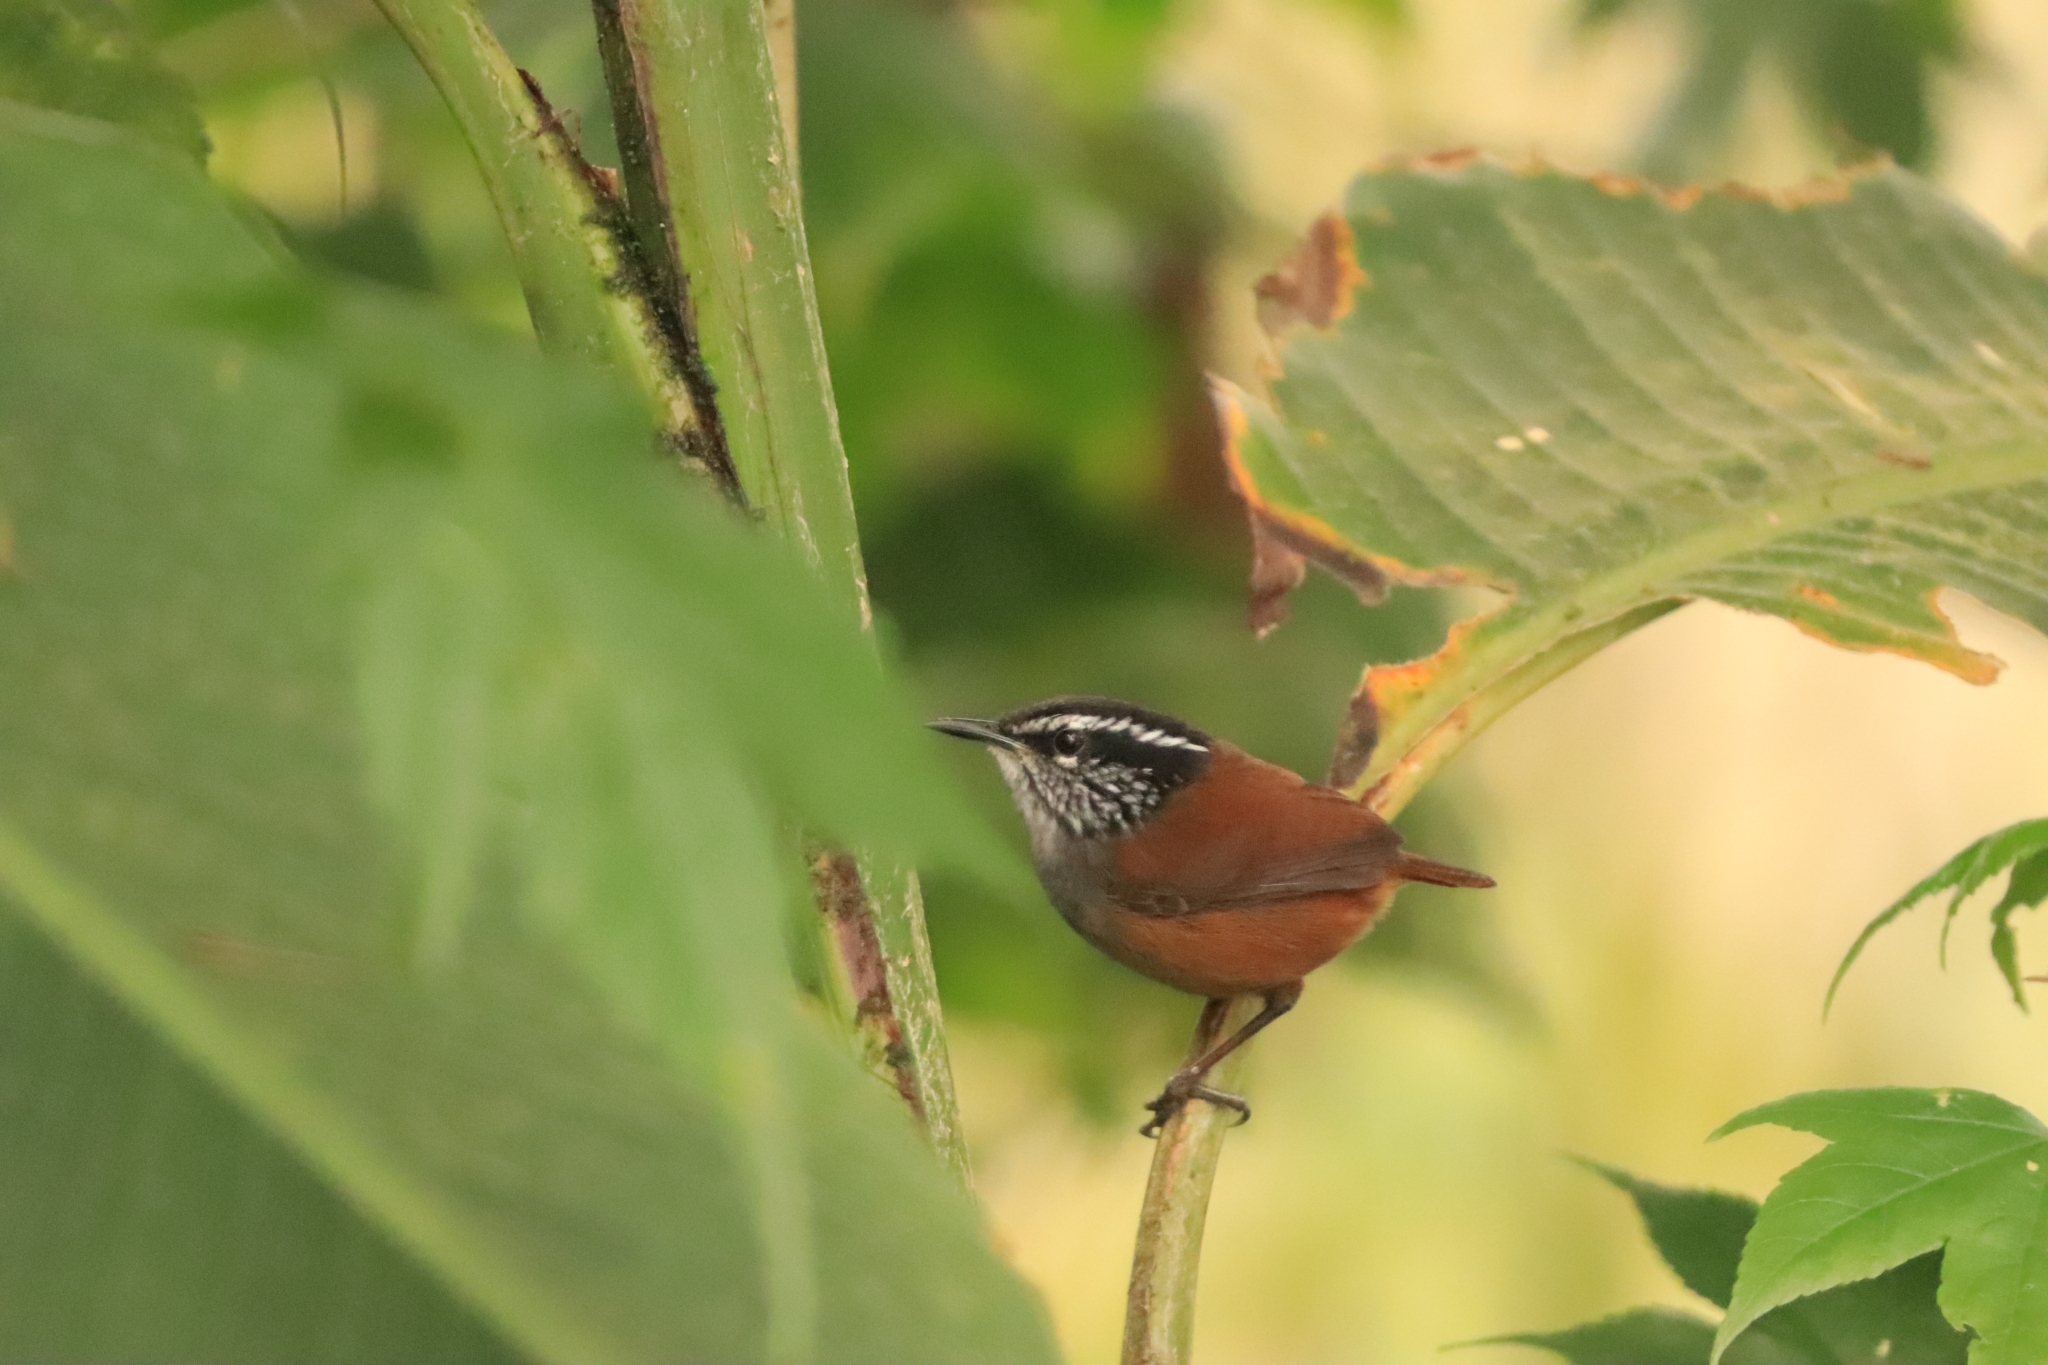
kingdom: Animalia
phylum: Chordata
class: Aves
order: Passeriformes
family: Troglodytidae
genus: Henicorhina
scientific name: Henicorhina leucophrys
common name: Gray-breasted wood-wren
